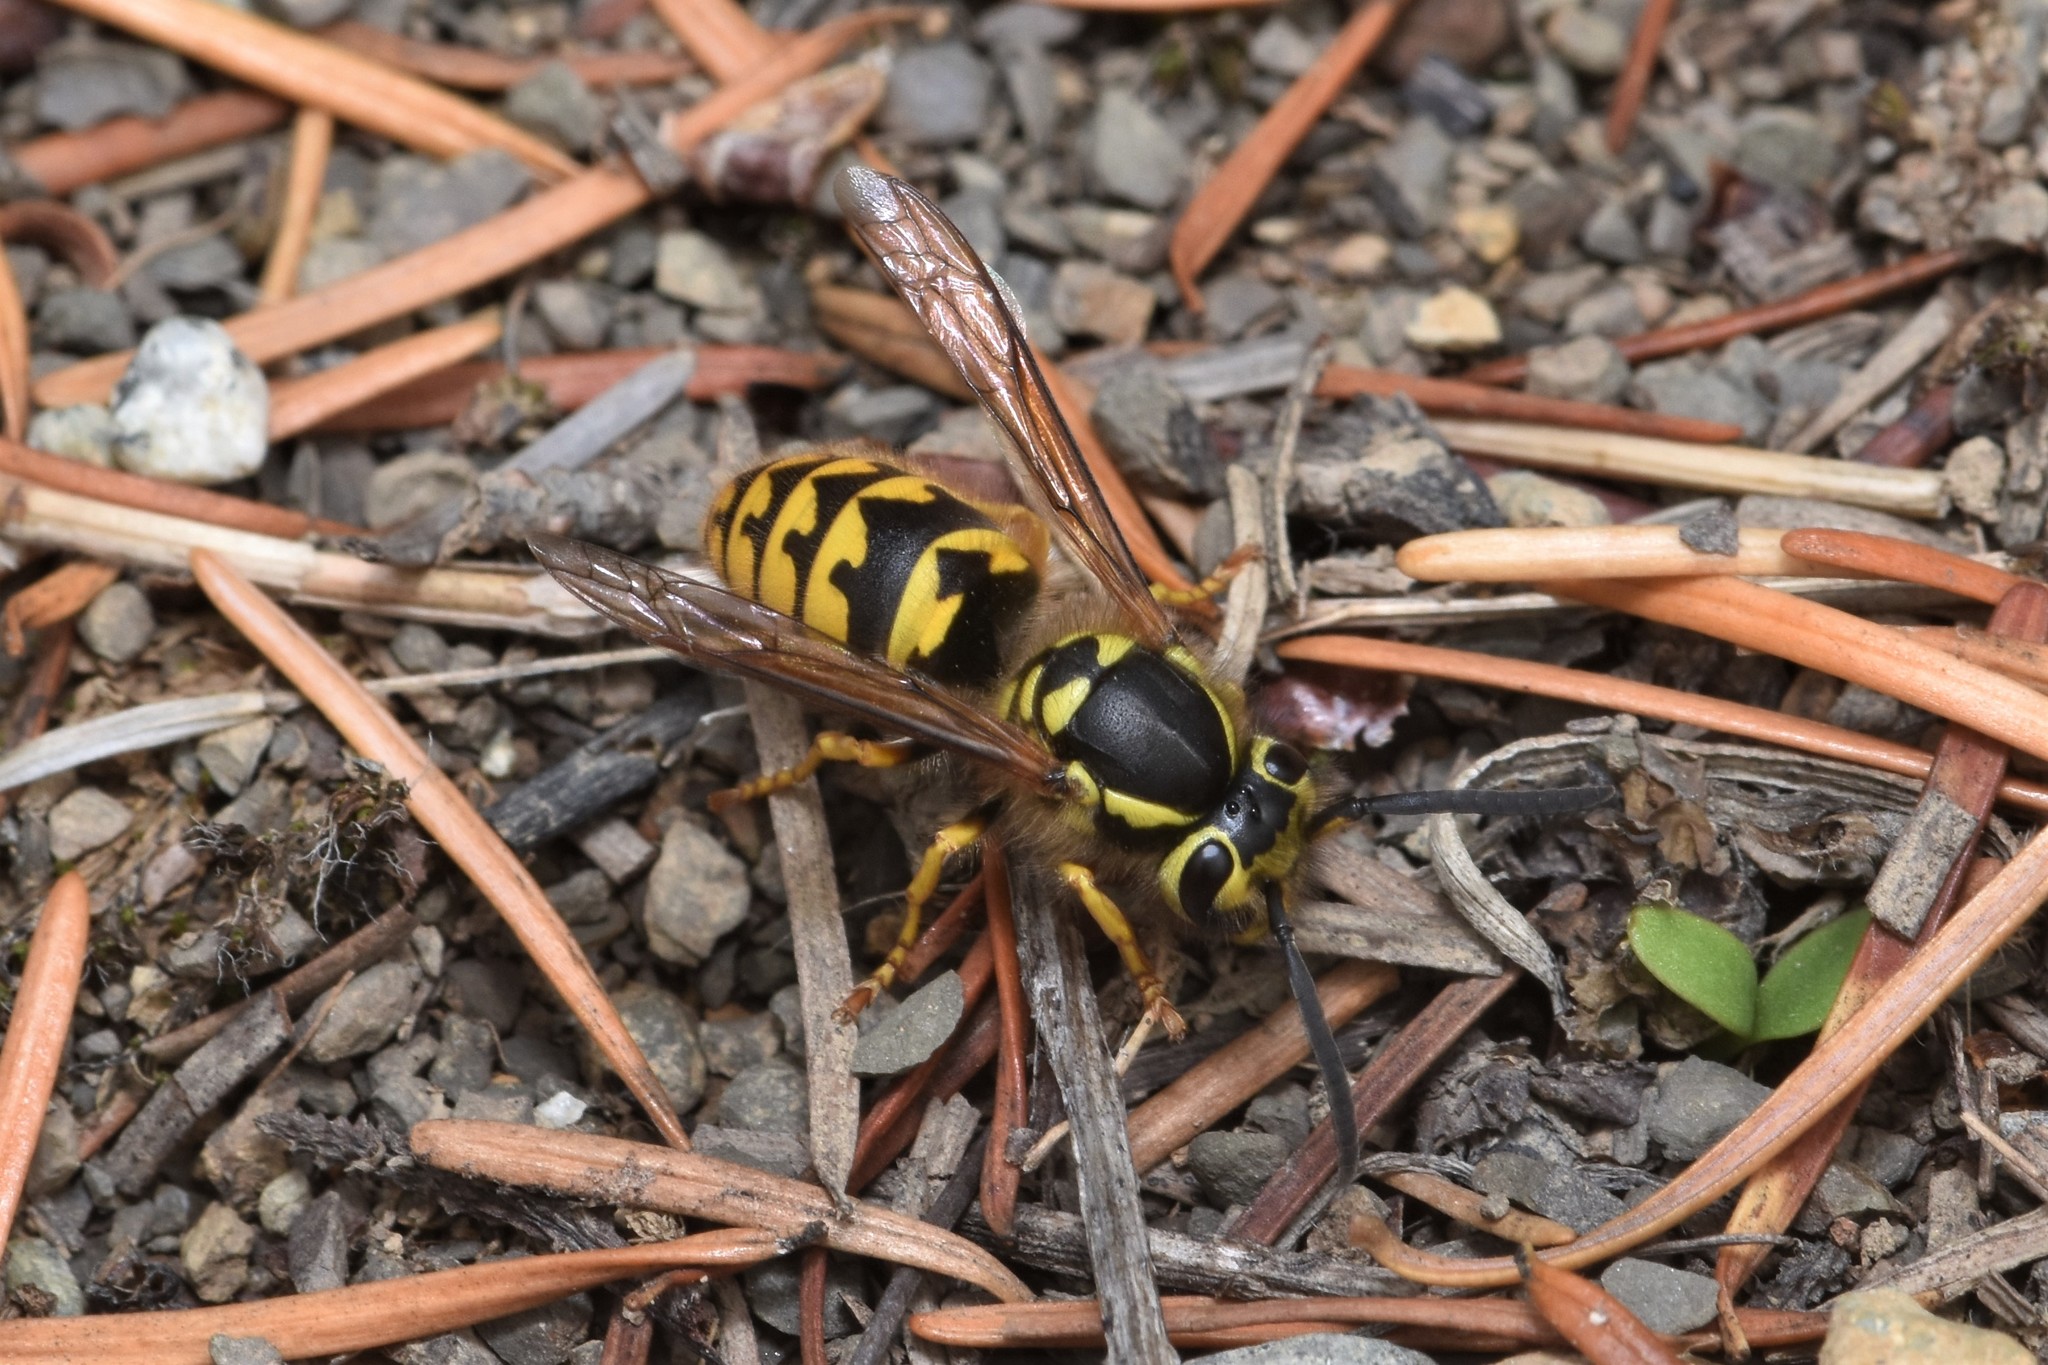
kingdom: Animalia
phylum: Arthropoda
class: Insecta
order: Hymenoptera
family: Vespidae
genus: Vespula
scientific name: Vespula pensylvanica
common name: Western yellowjacket
